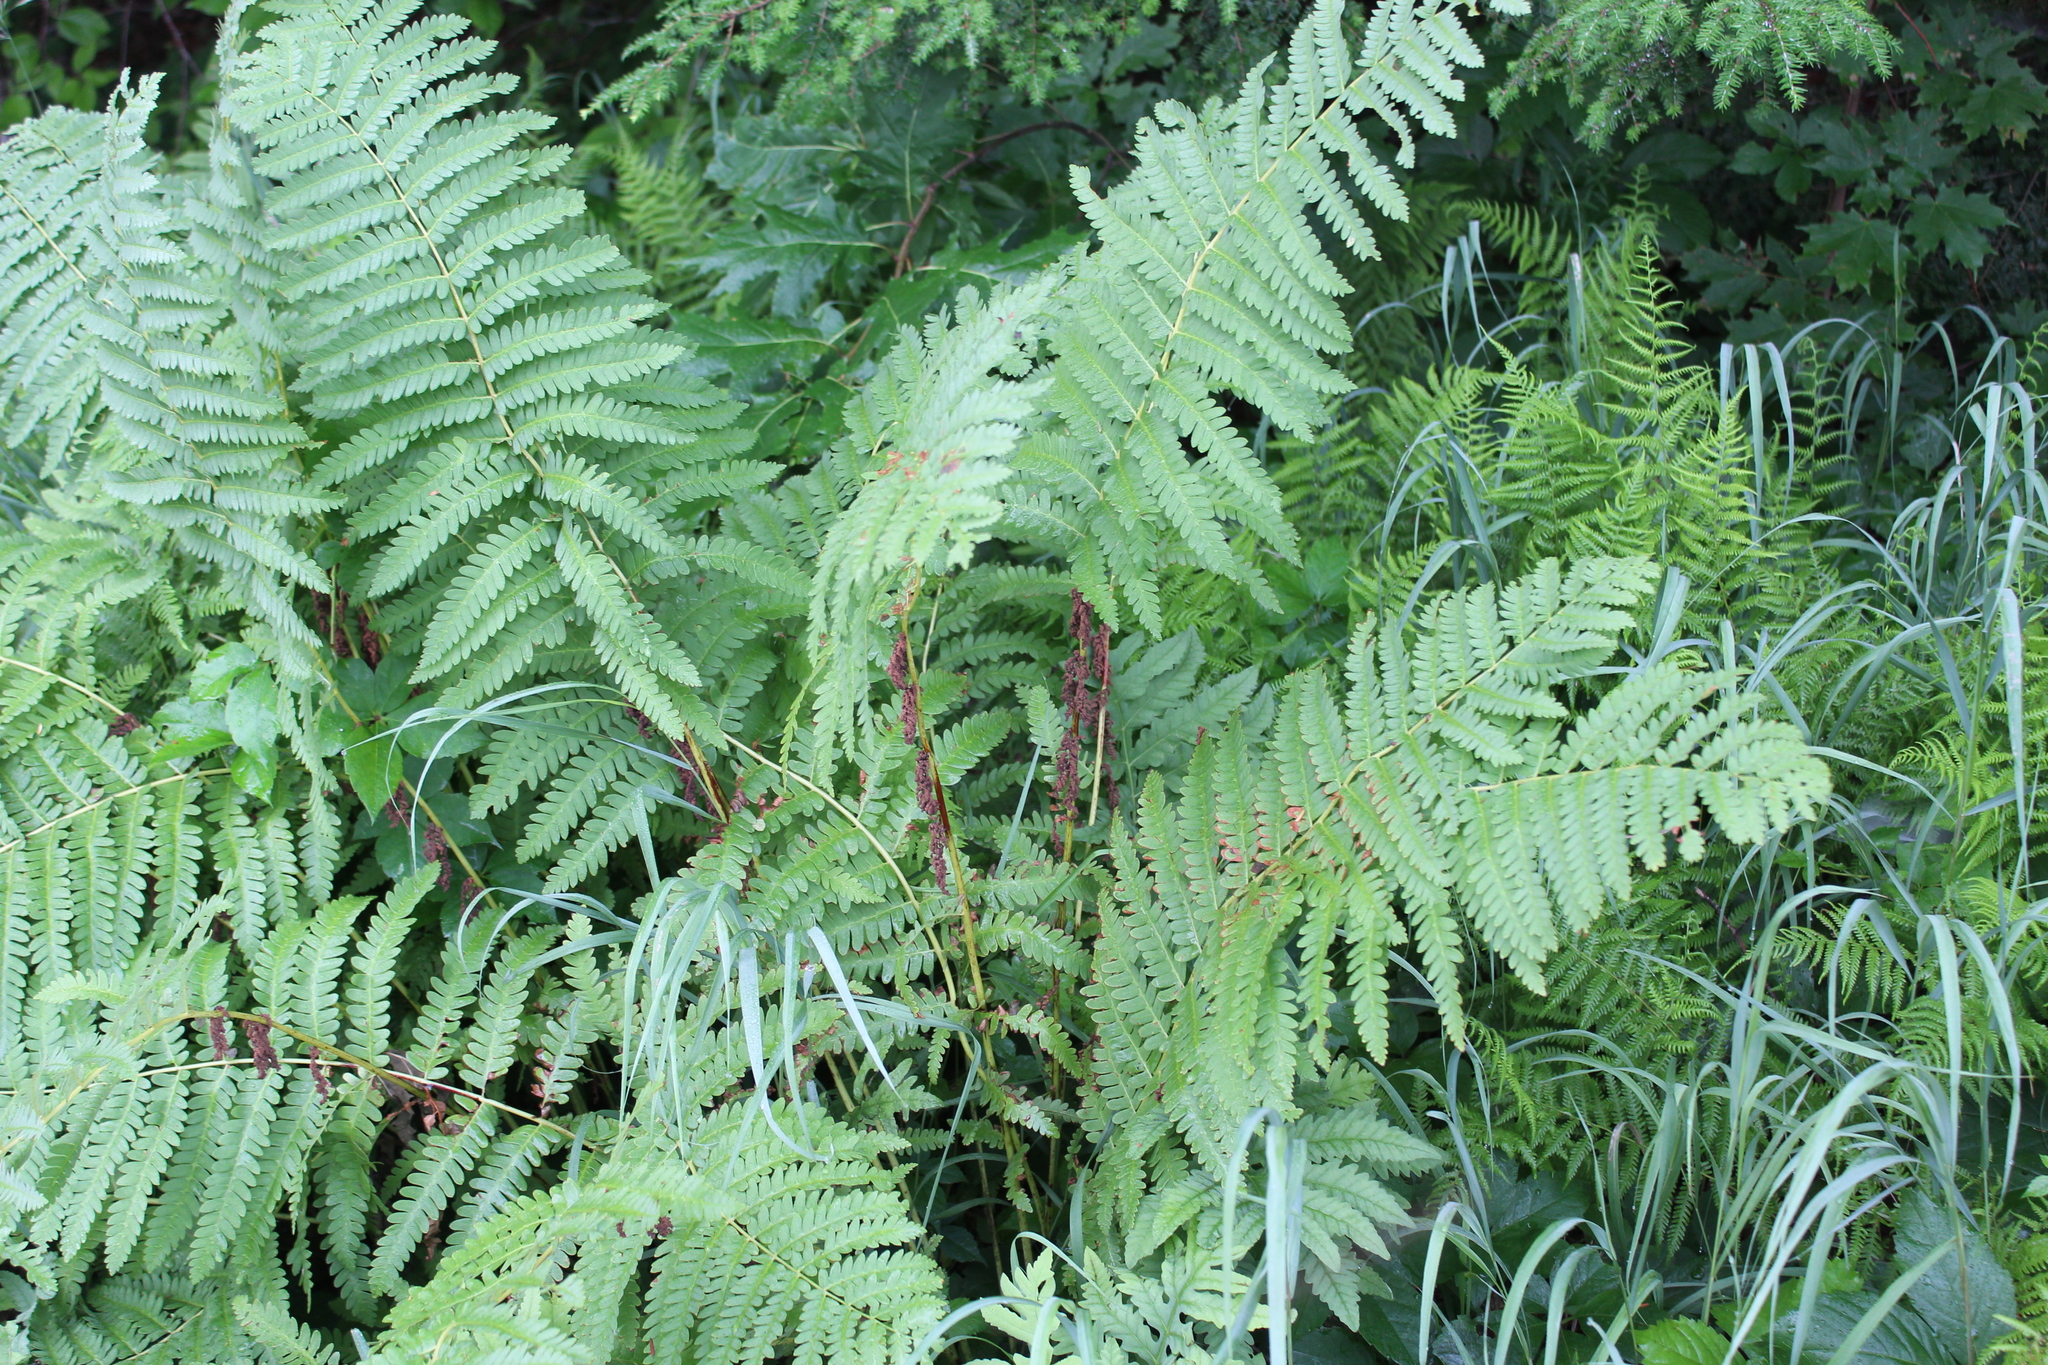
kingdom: Plantae
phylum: Tracheophyta
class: Polypodiopsida
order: Osmundales
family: Osmundaceae
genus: Claytosmunda
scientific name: Claytosmunda claytoniana
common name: Clayton's fern
